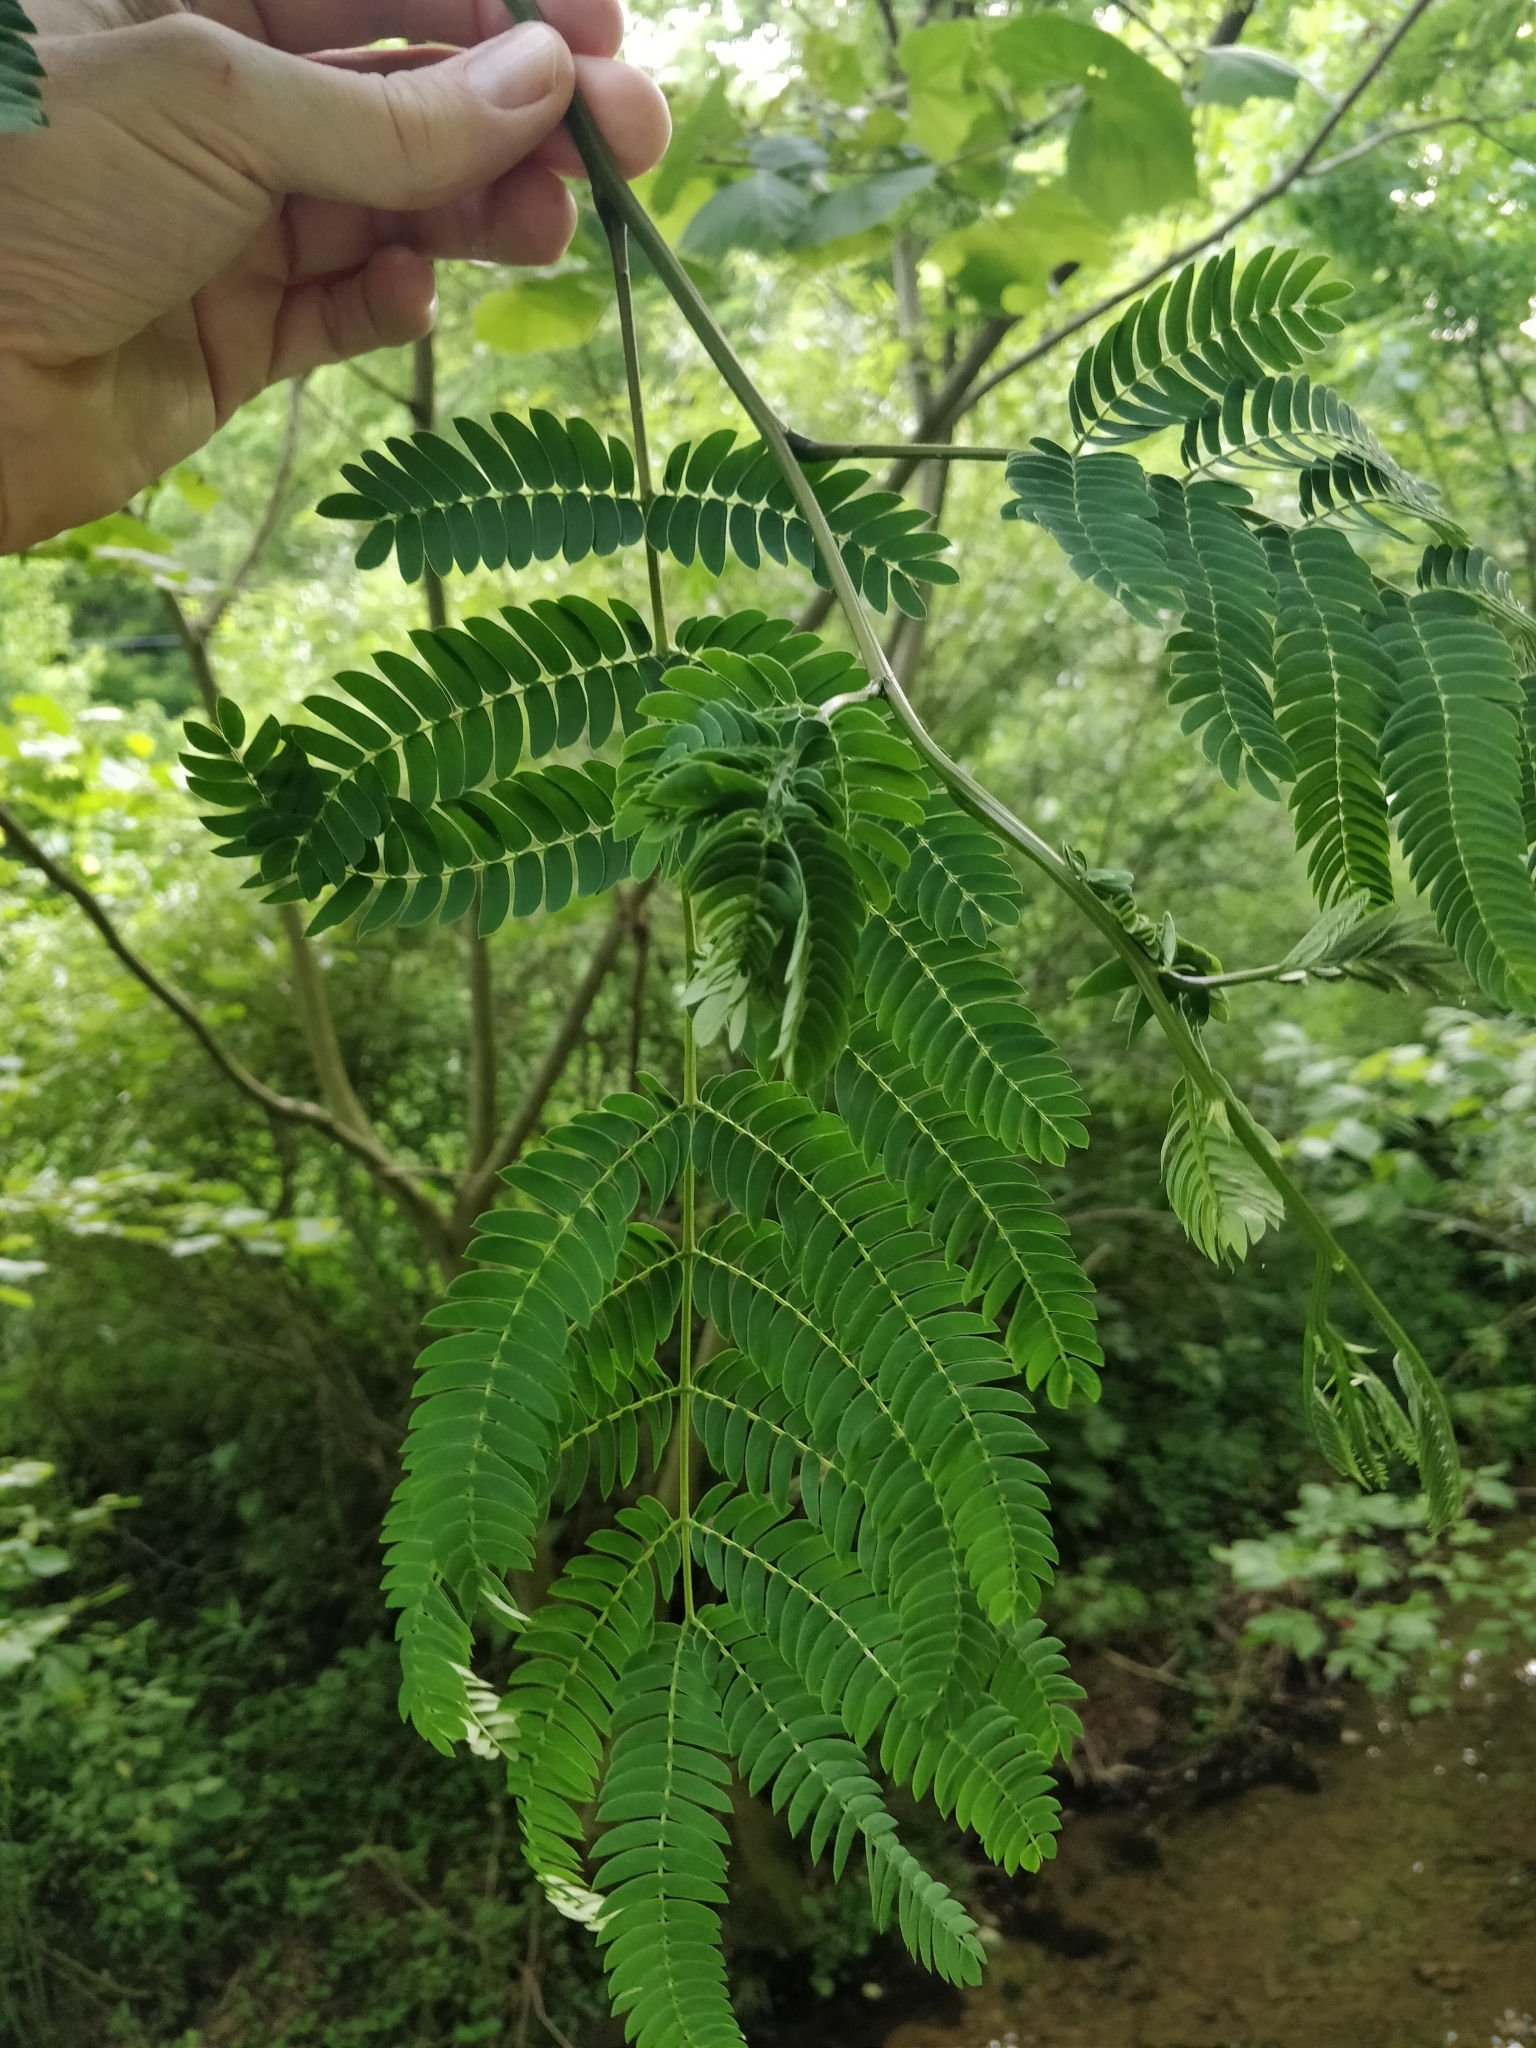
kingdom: Plantae
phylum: Tracheophyta
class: Magnoliopsida
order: Fabales
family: Fabaceae
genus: Albizia
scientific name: Albizia julibrissin
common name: Silktree
